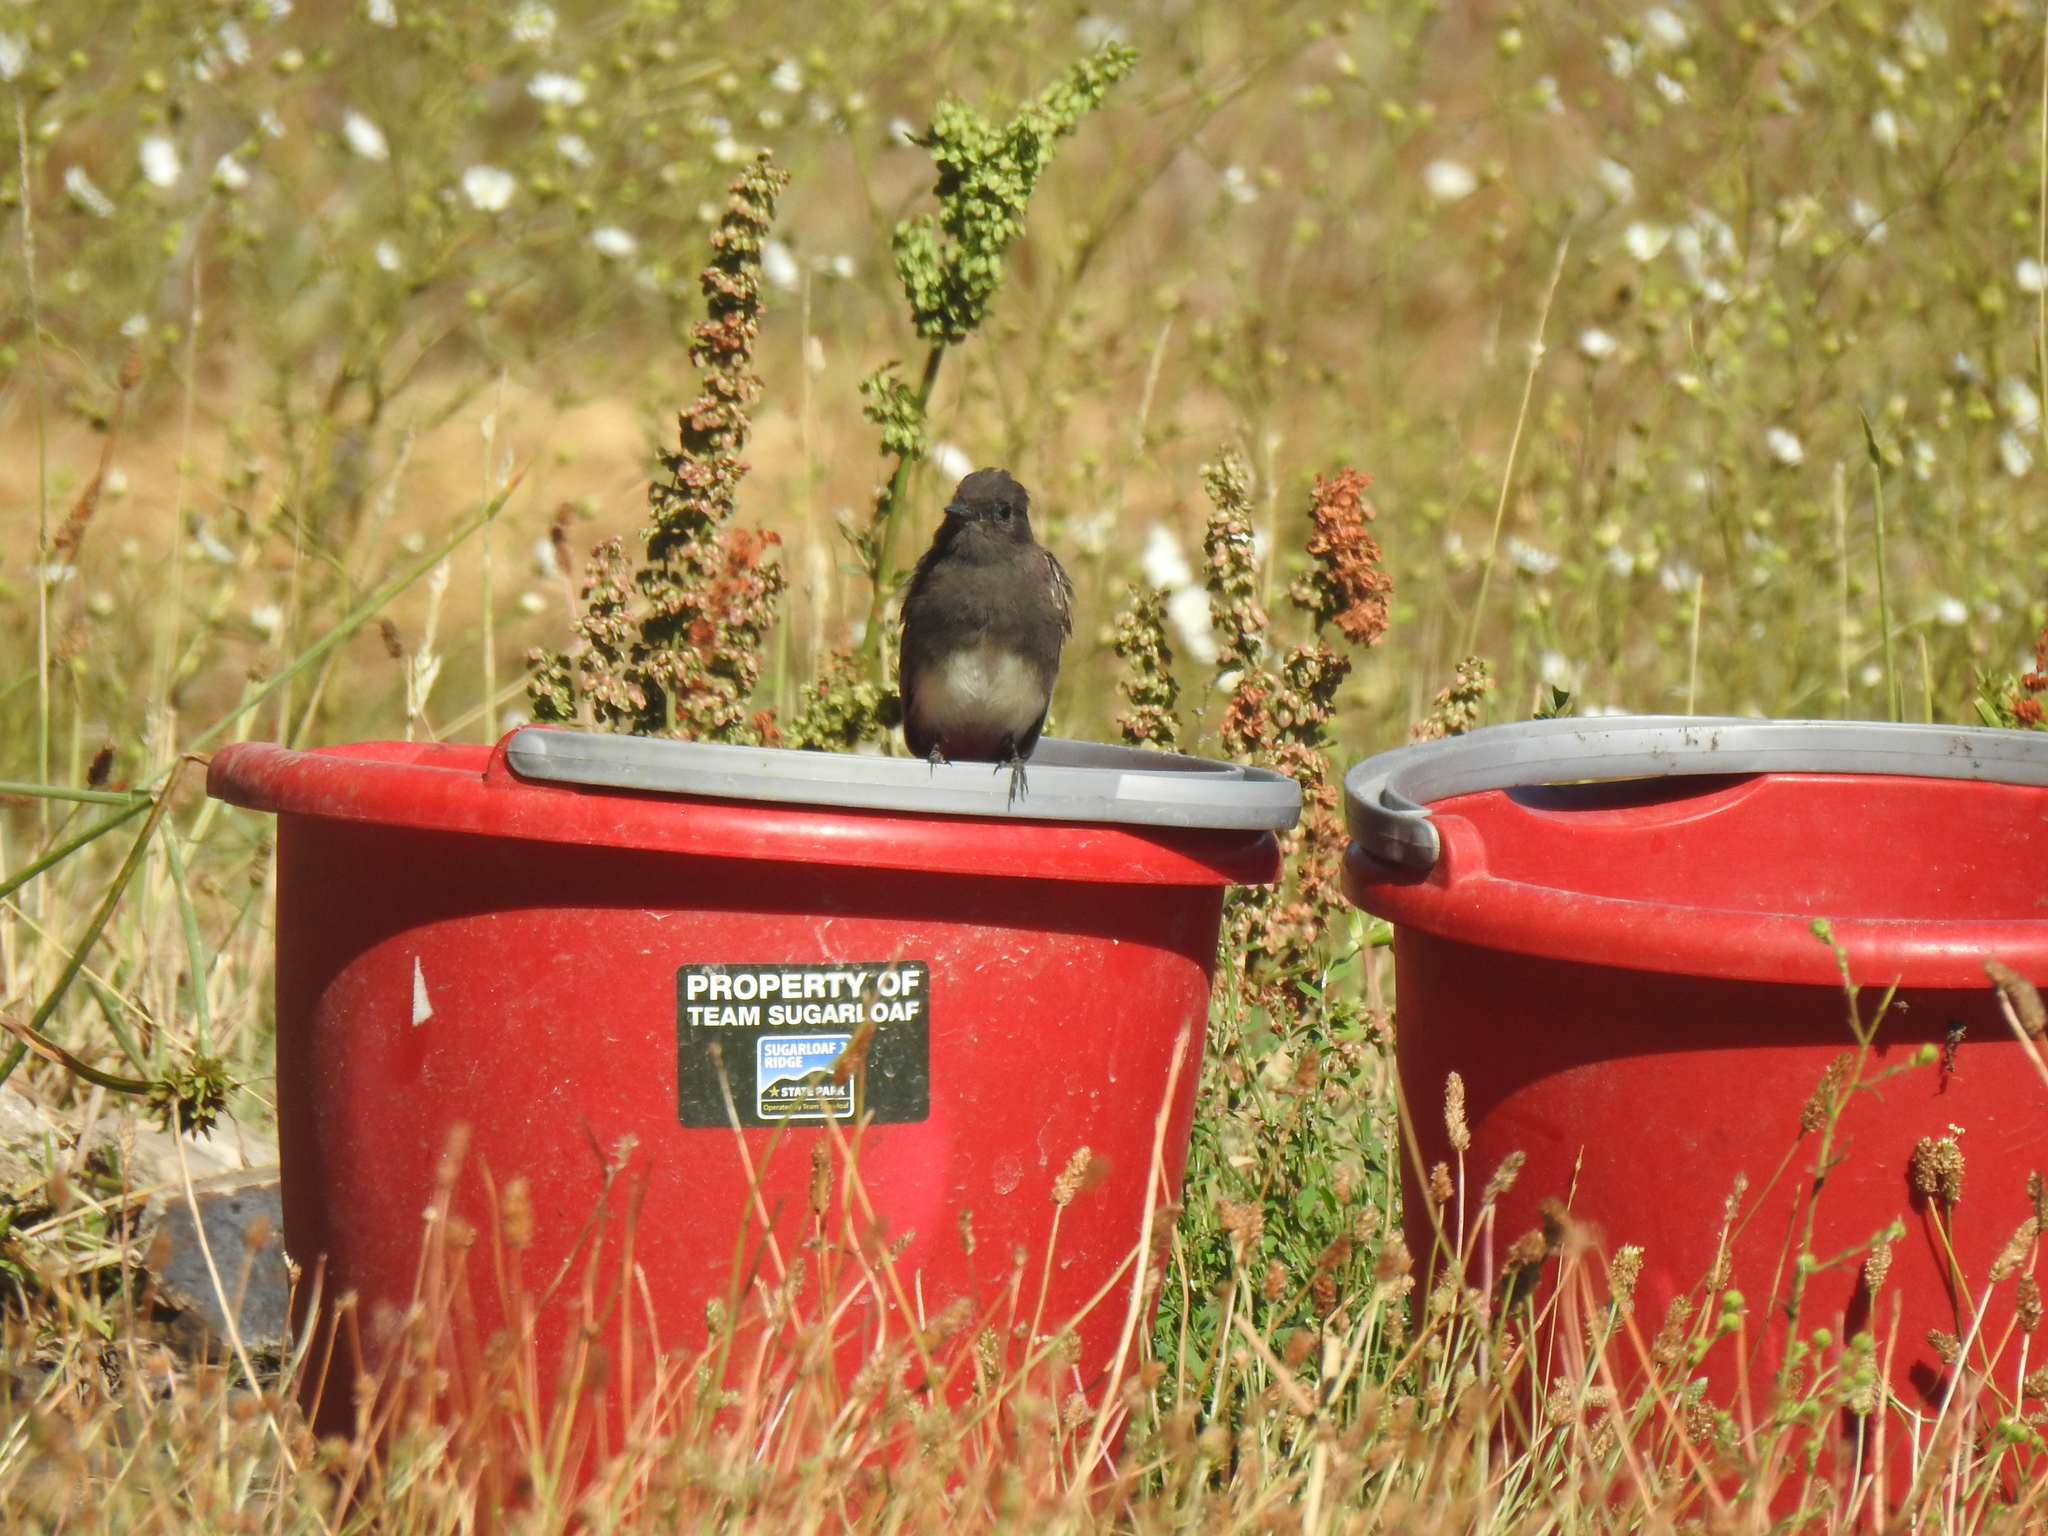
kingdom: Animalia
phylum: Chordata
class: Aves
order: Passeriformes
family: Tyrannidae
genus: Sayornis
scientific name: Sayornis nigricans
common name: Black phoebe
